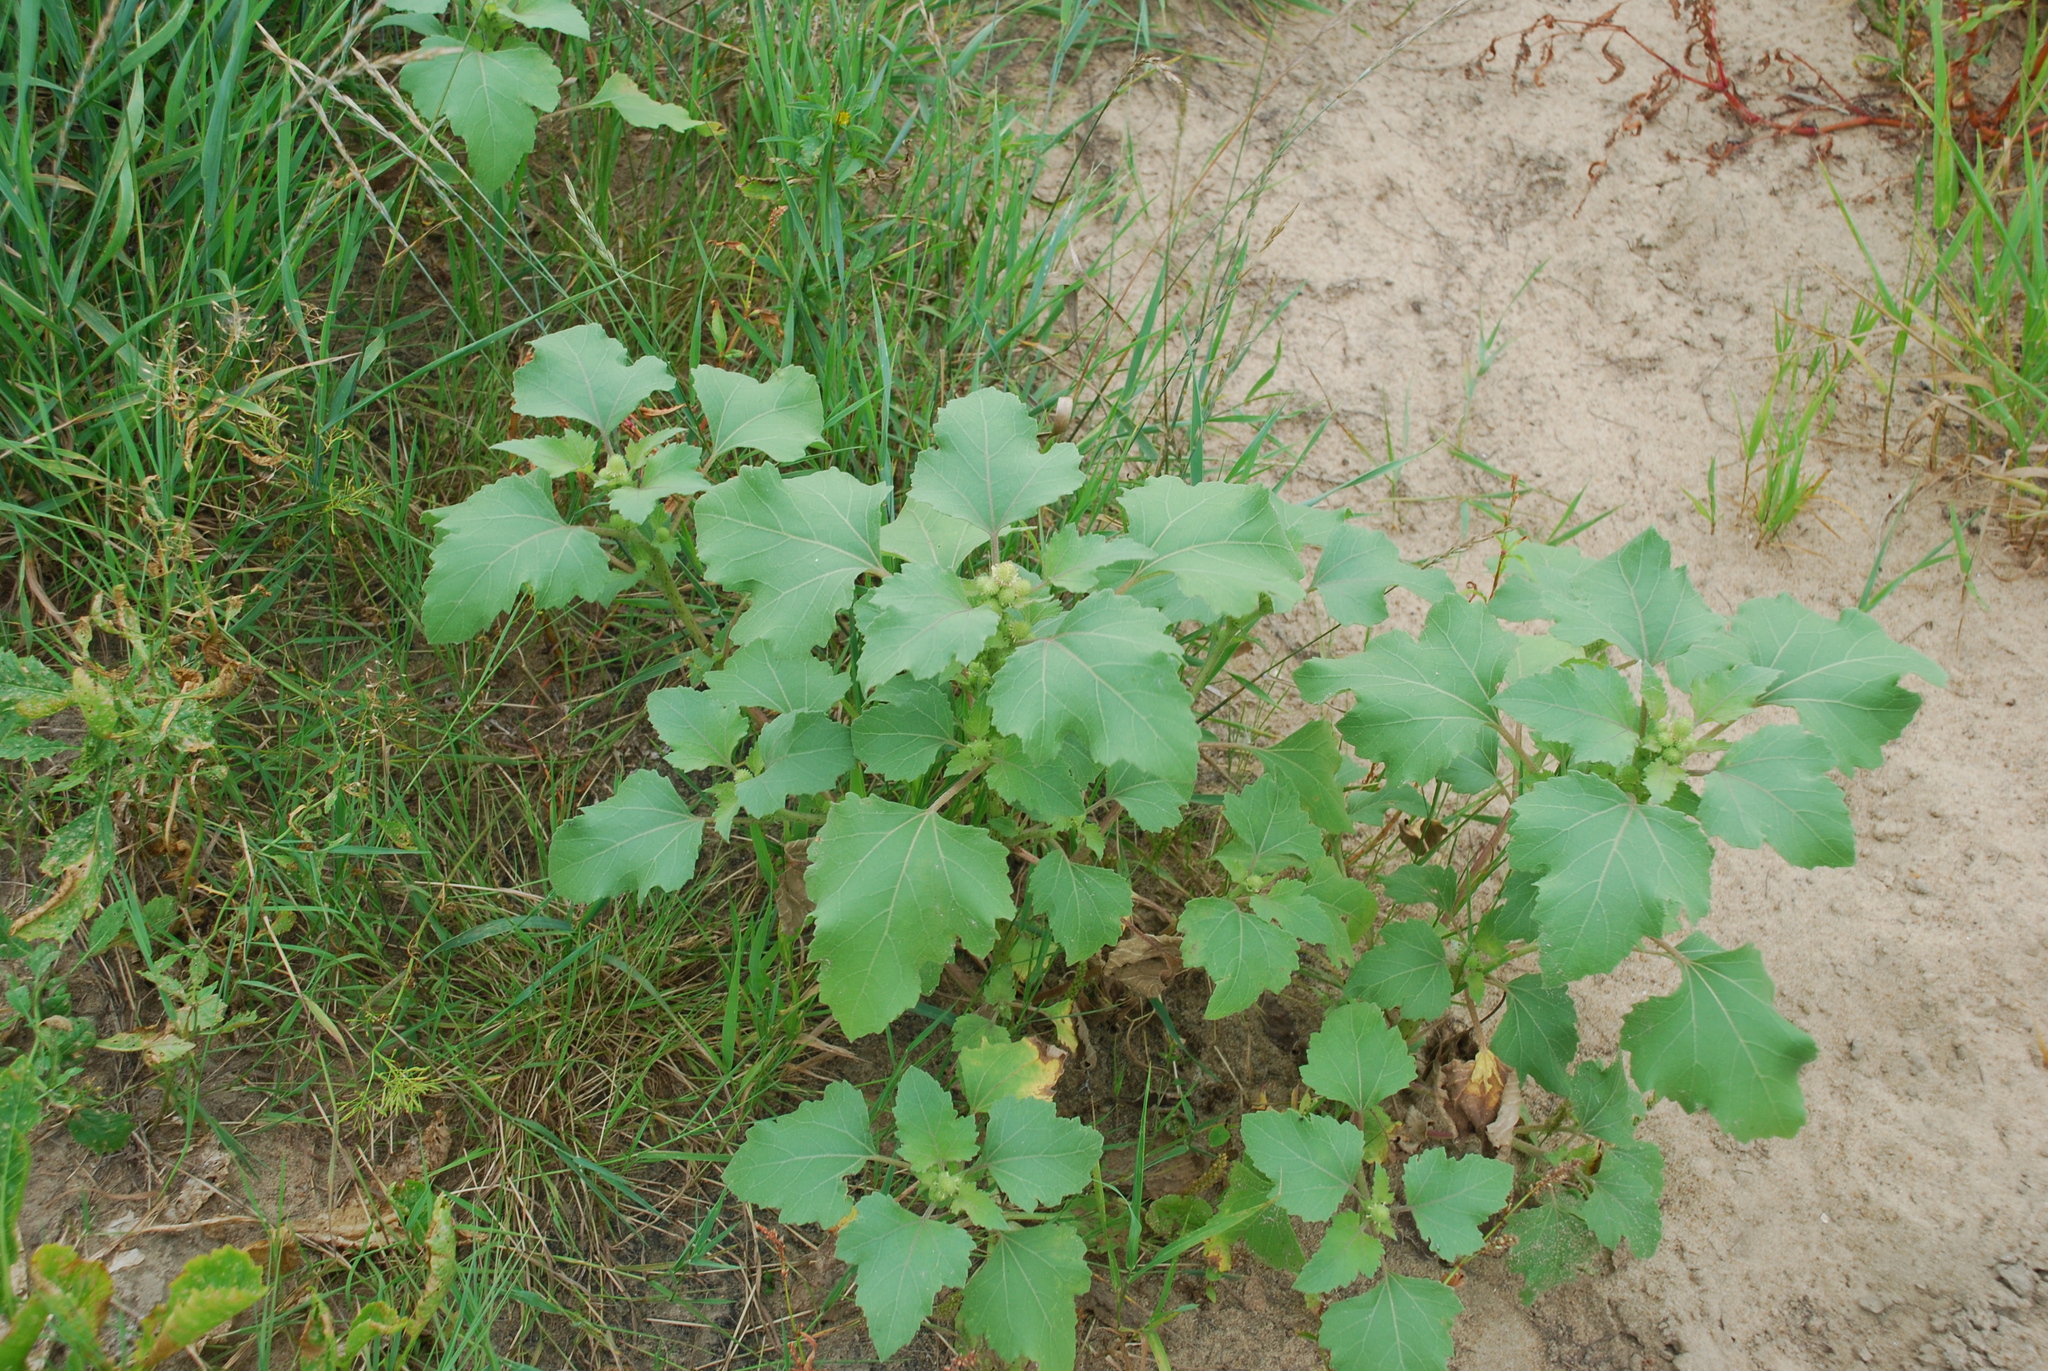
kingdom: Plantae
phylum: Tracheophyta
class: Magnoliopsida
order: Asterales
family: Asteraceae
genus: Xanthium
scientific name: Xanthium orientale
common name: Californian burr
